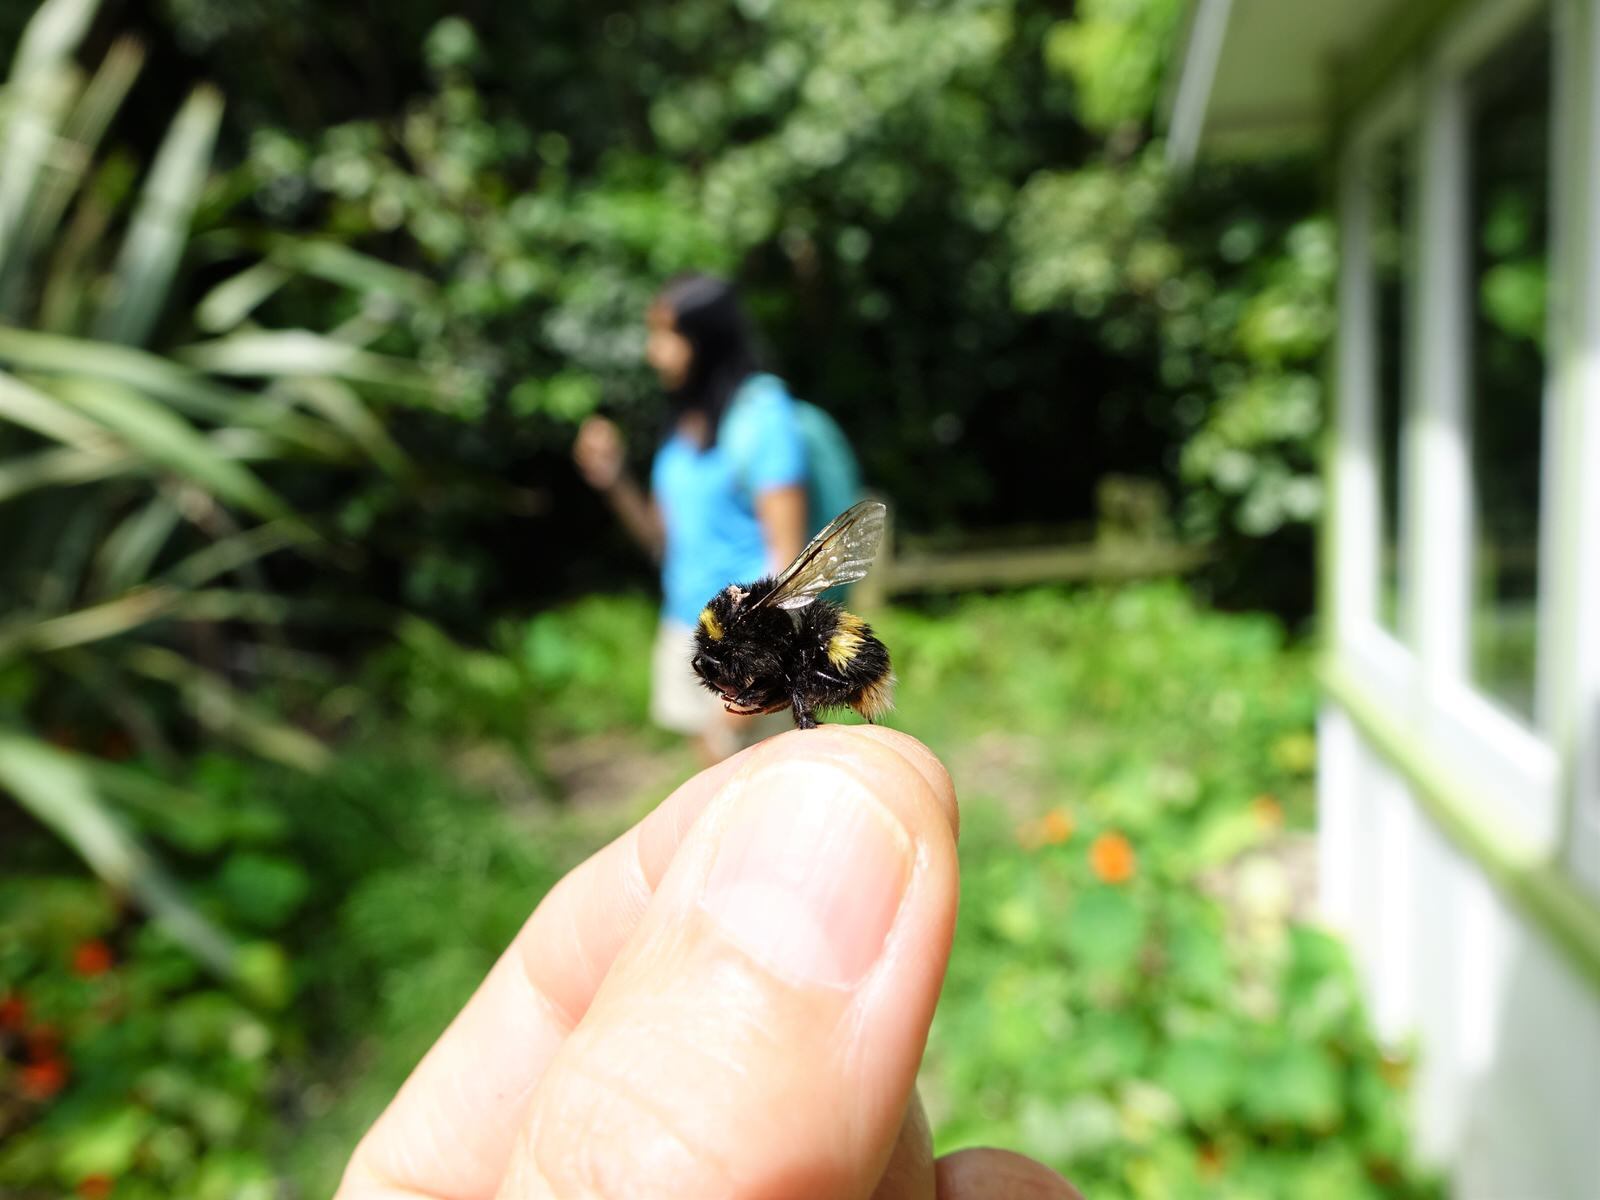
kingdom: Animalia
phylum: Arthropoda
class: Insecta
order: Hymenoptera
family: Apidae
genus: Bombus
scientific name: Bombus terrestris
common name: Buff-tailed bumblebee
